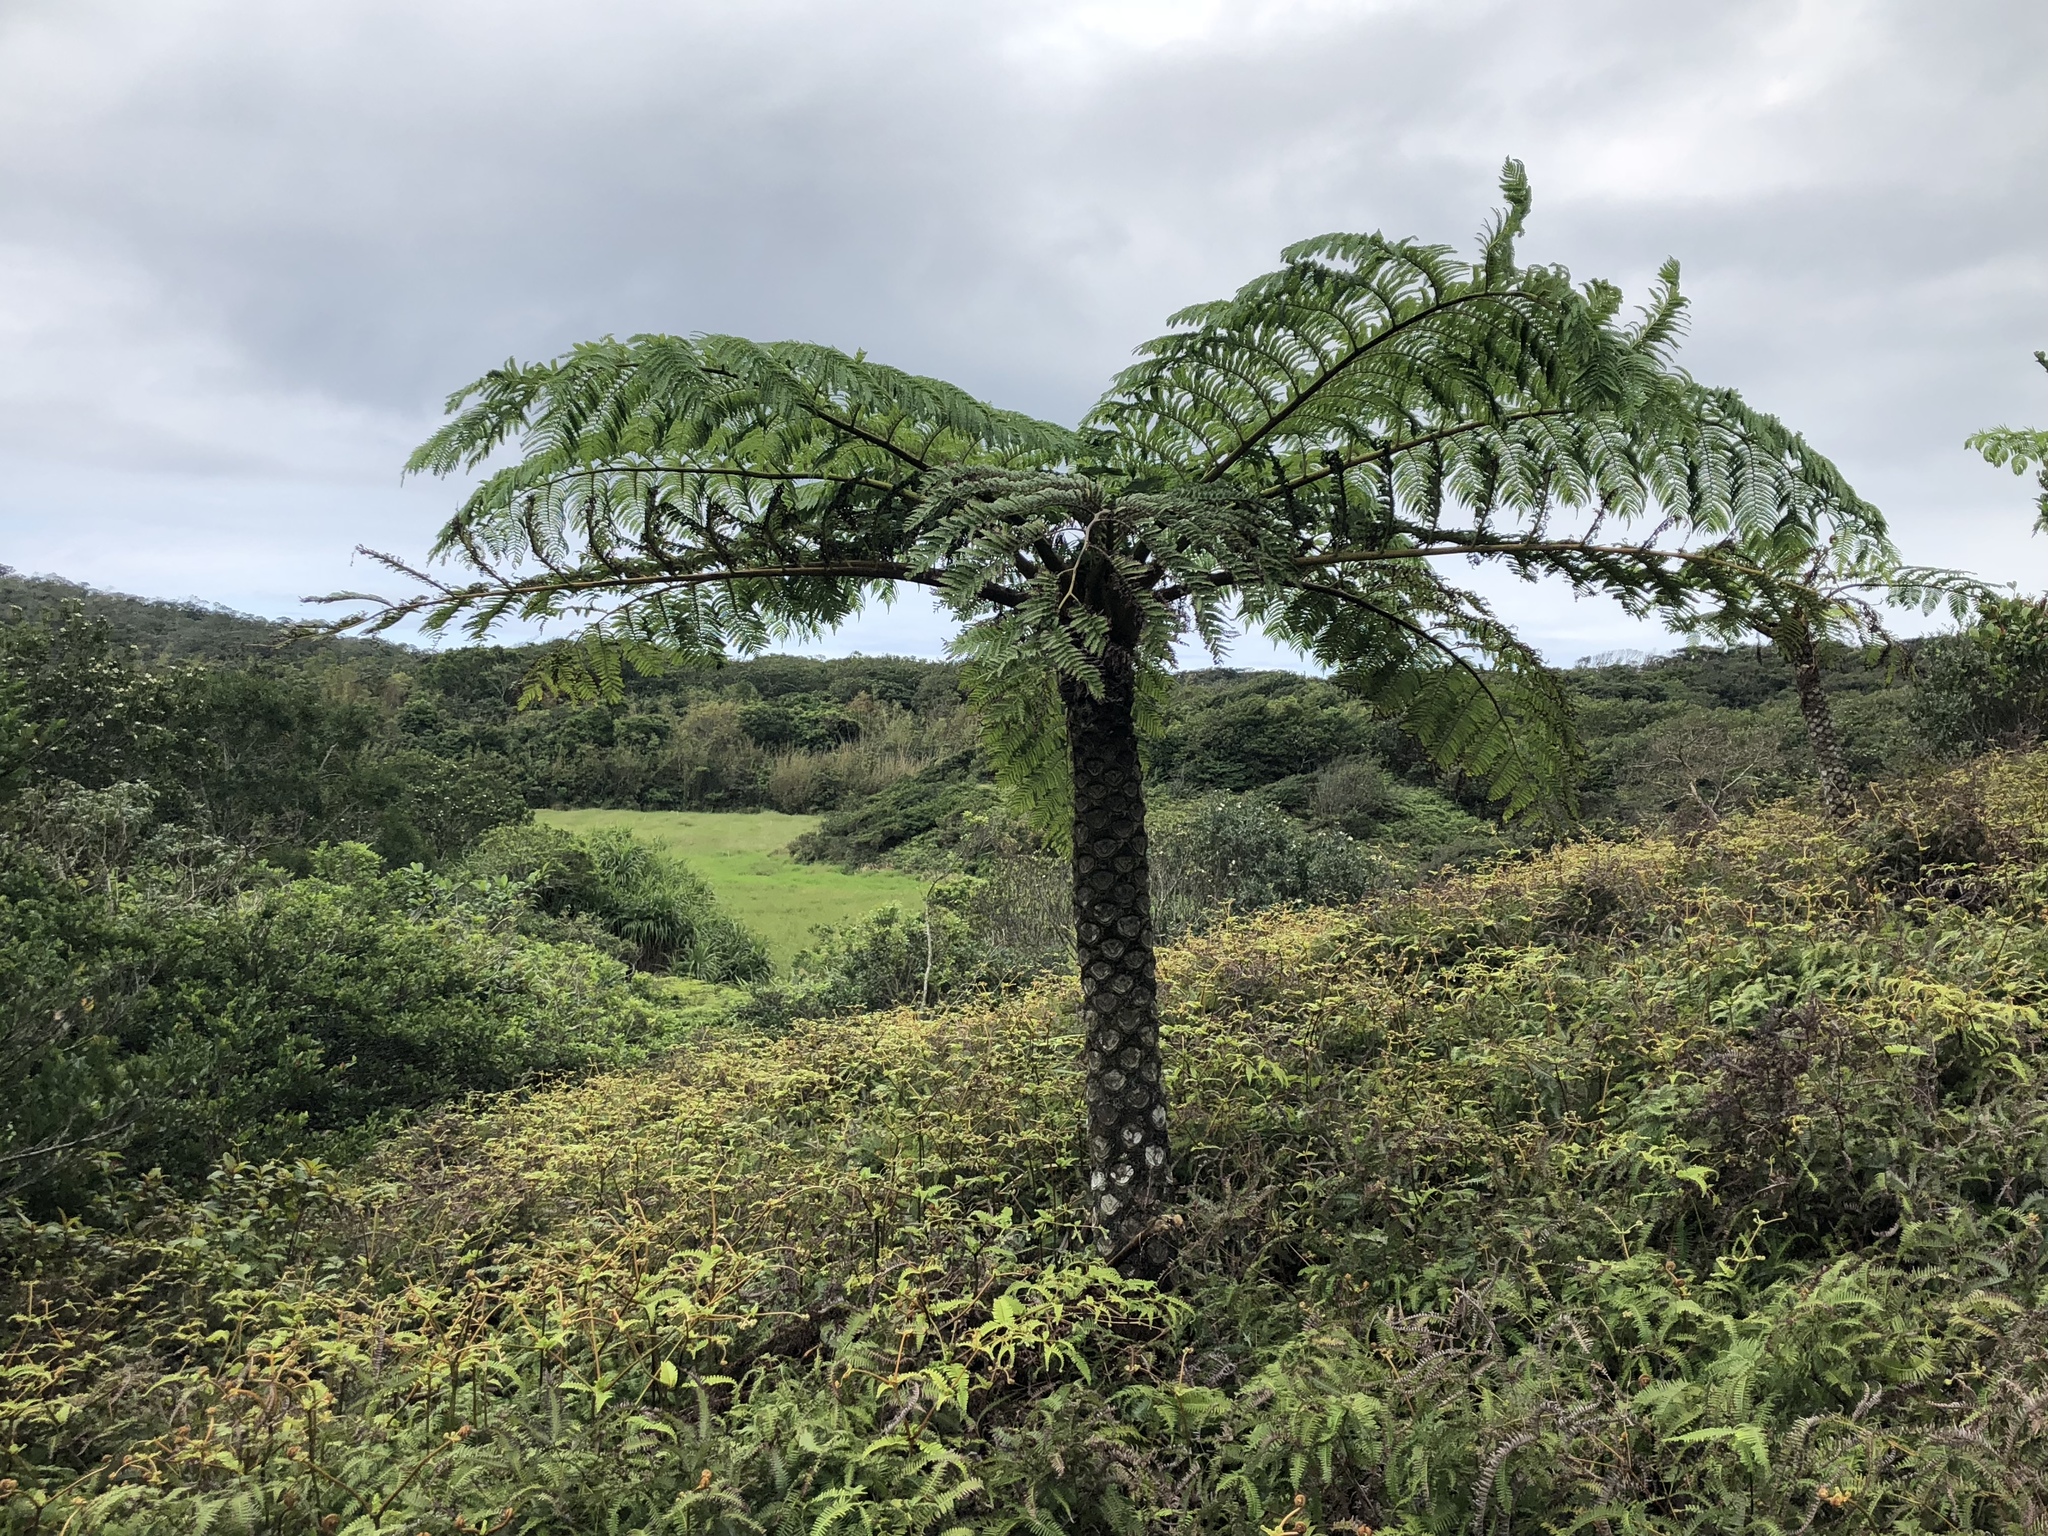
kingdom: Plantae
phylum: Tracheophyta
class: Polypodiopsida
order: Cyatheales
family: Cyatheaceae
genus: Alsophila
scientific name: Alsophila lepifera
